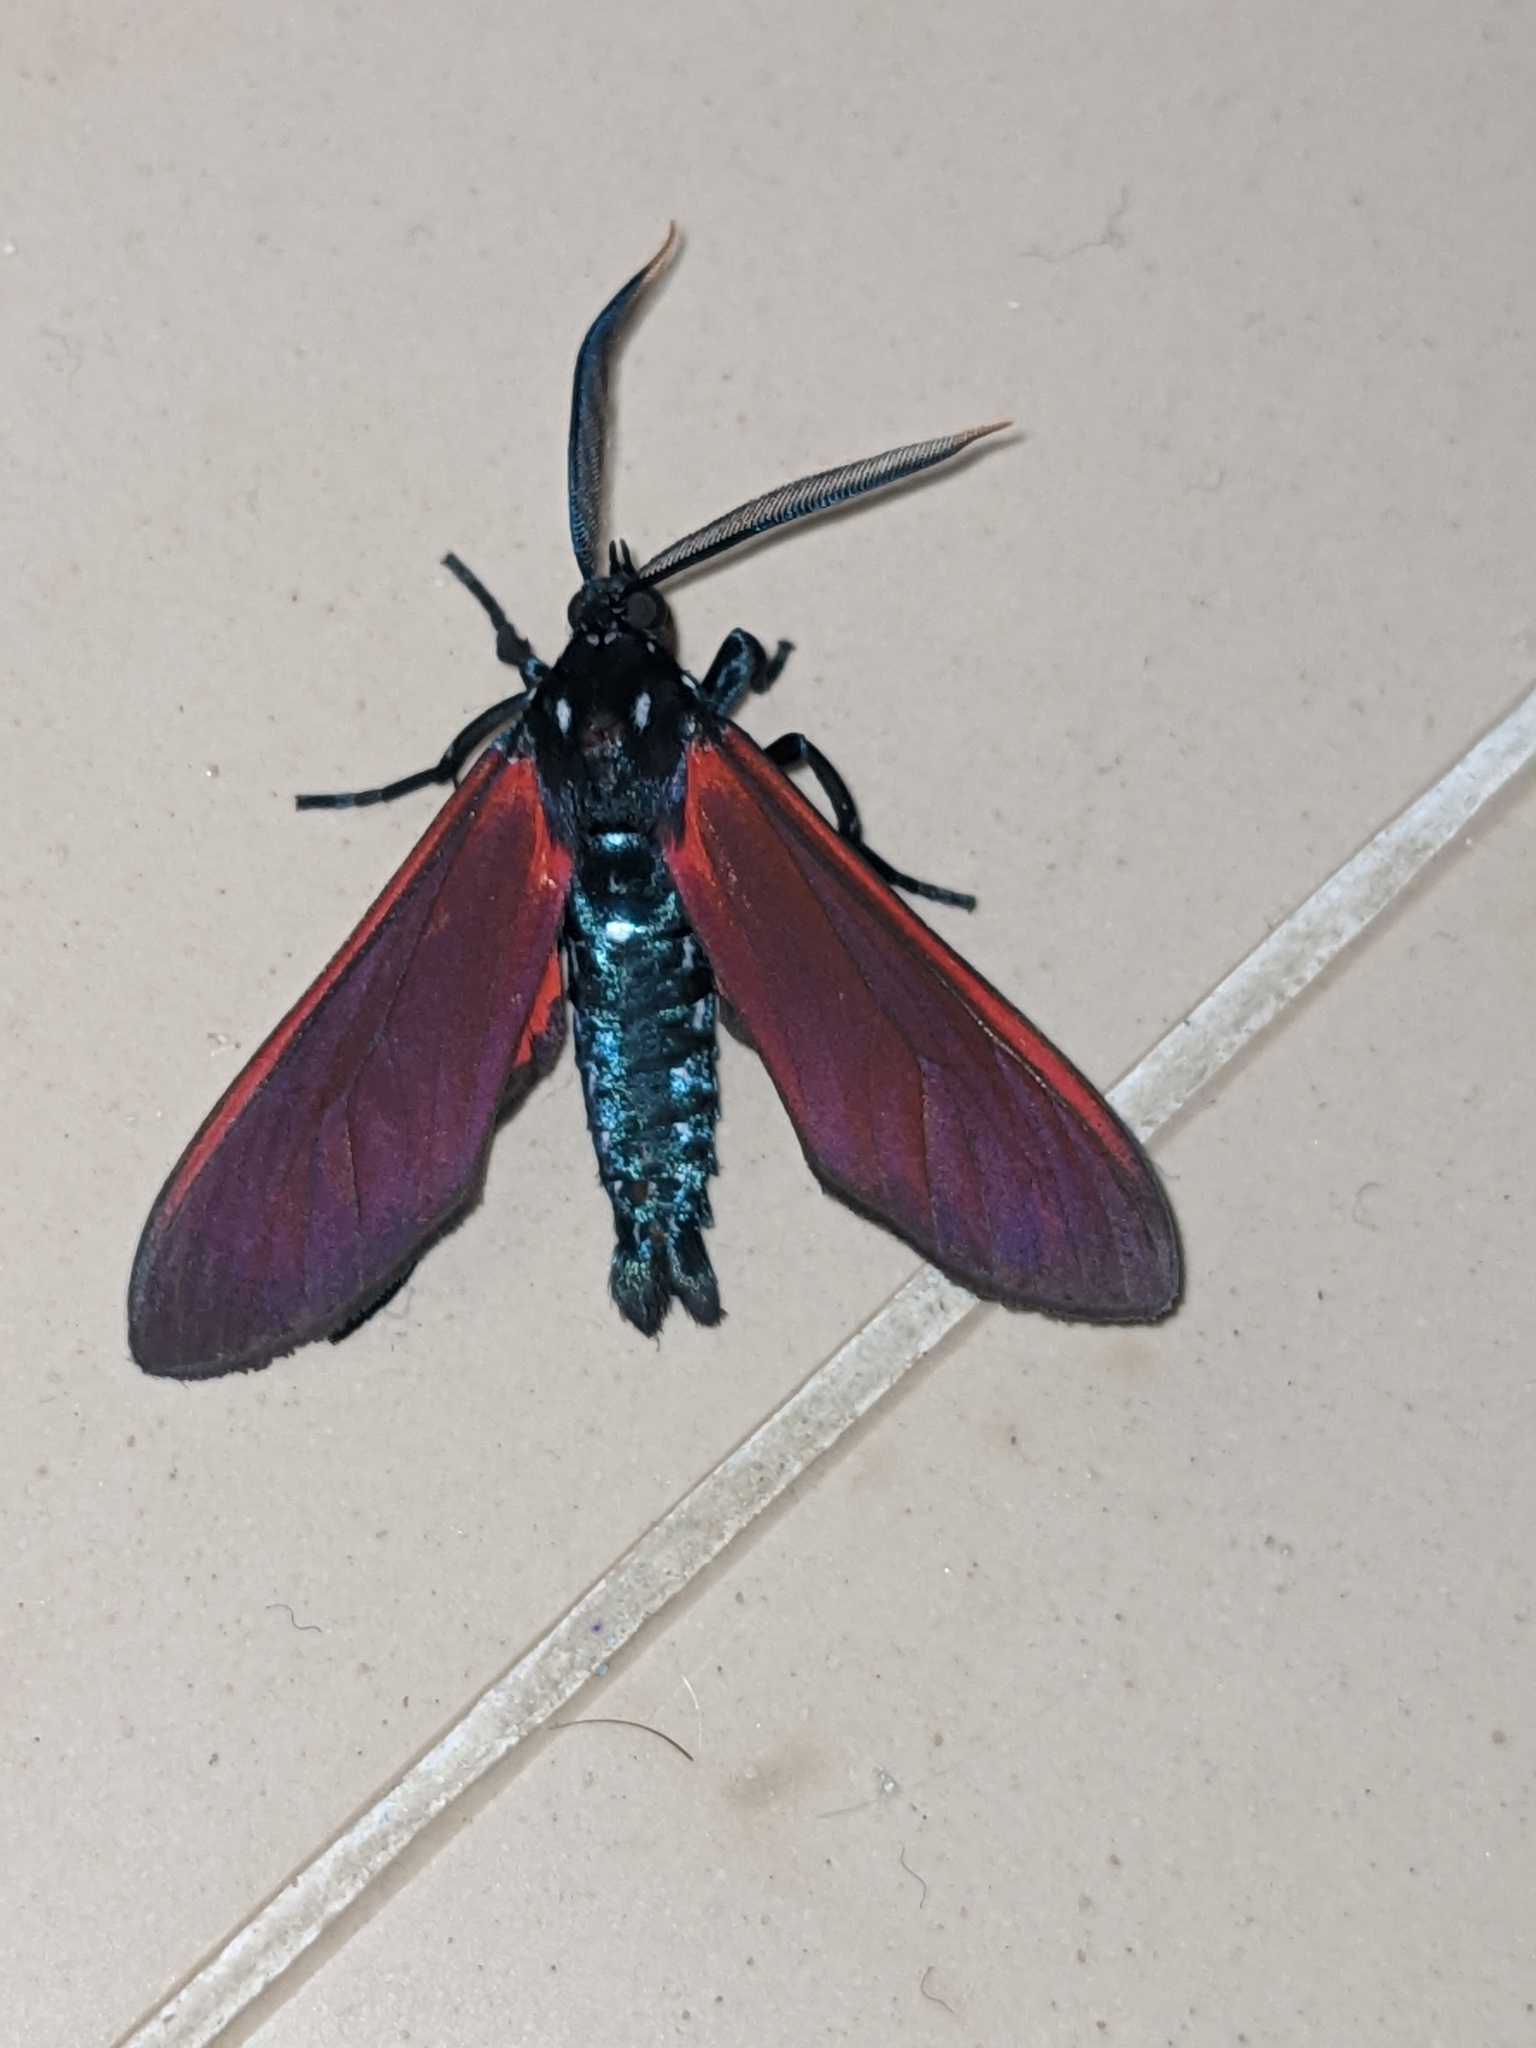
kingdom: Animalia
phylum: Arthropoda
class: Insecta
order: Lepidoptera
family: Erebidae
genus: Empyreuma
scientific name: Empyreuma pugione
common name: Spotted oleander caterpillar moth
